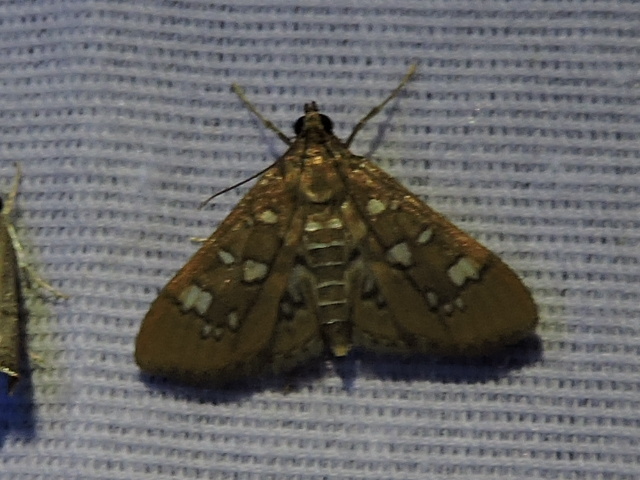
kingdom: Animalia
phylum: Arthropoda
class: Insecta
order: Lepidoptera
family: Crambidae
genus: Samea
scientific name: Samea baccatalis
